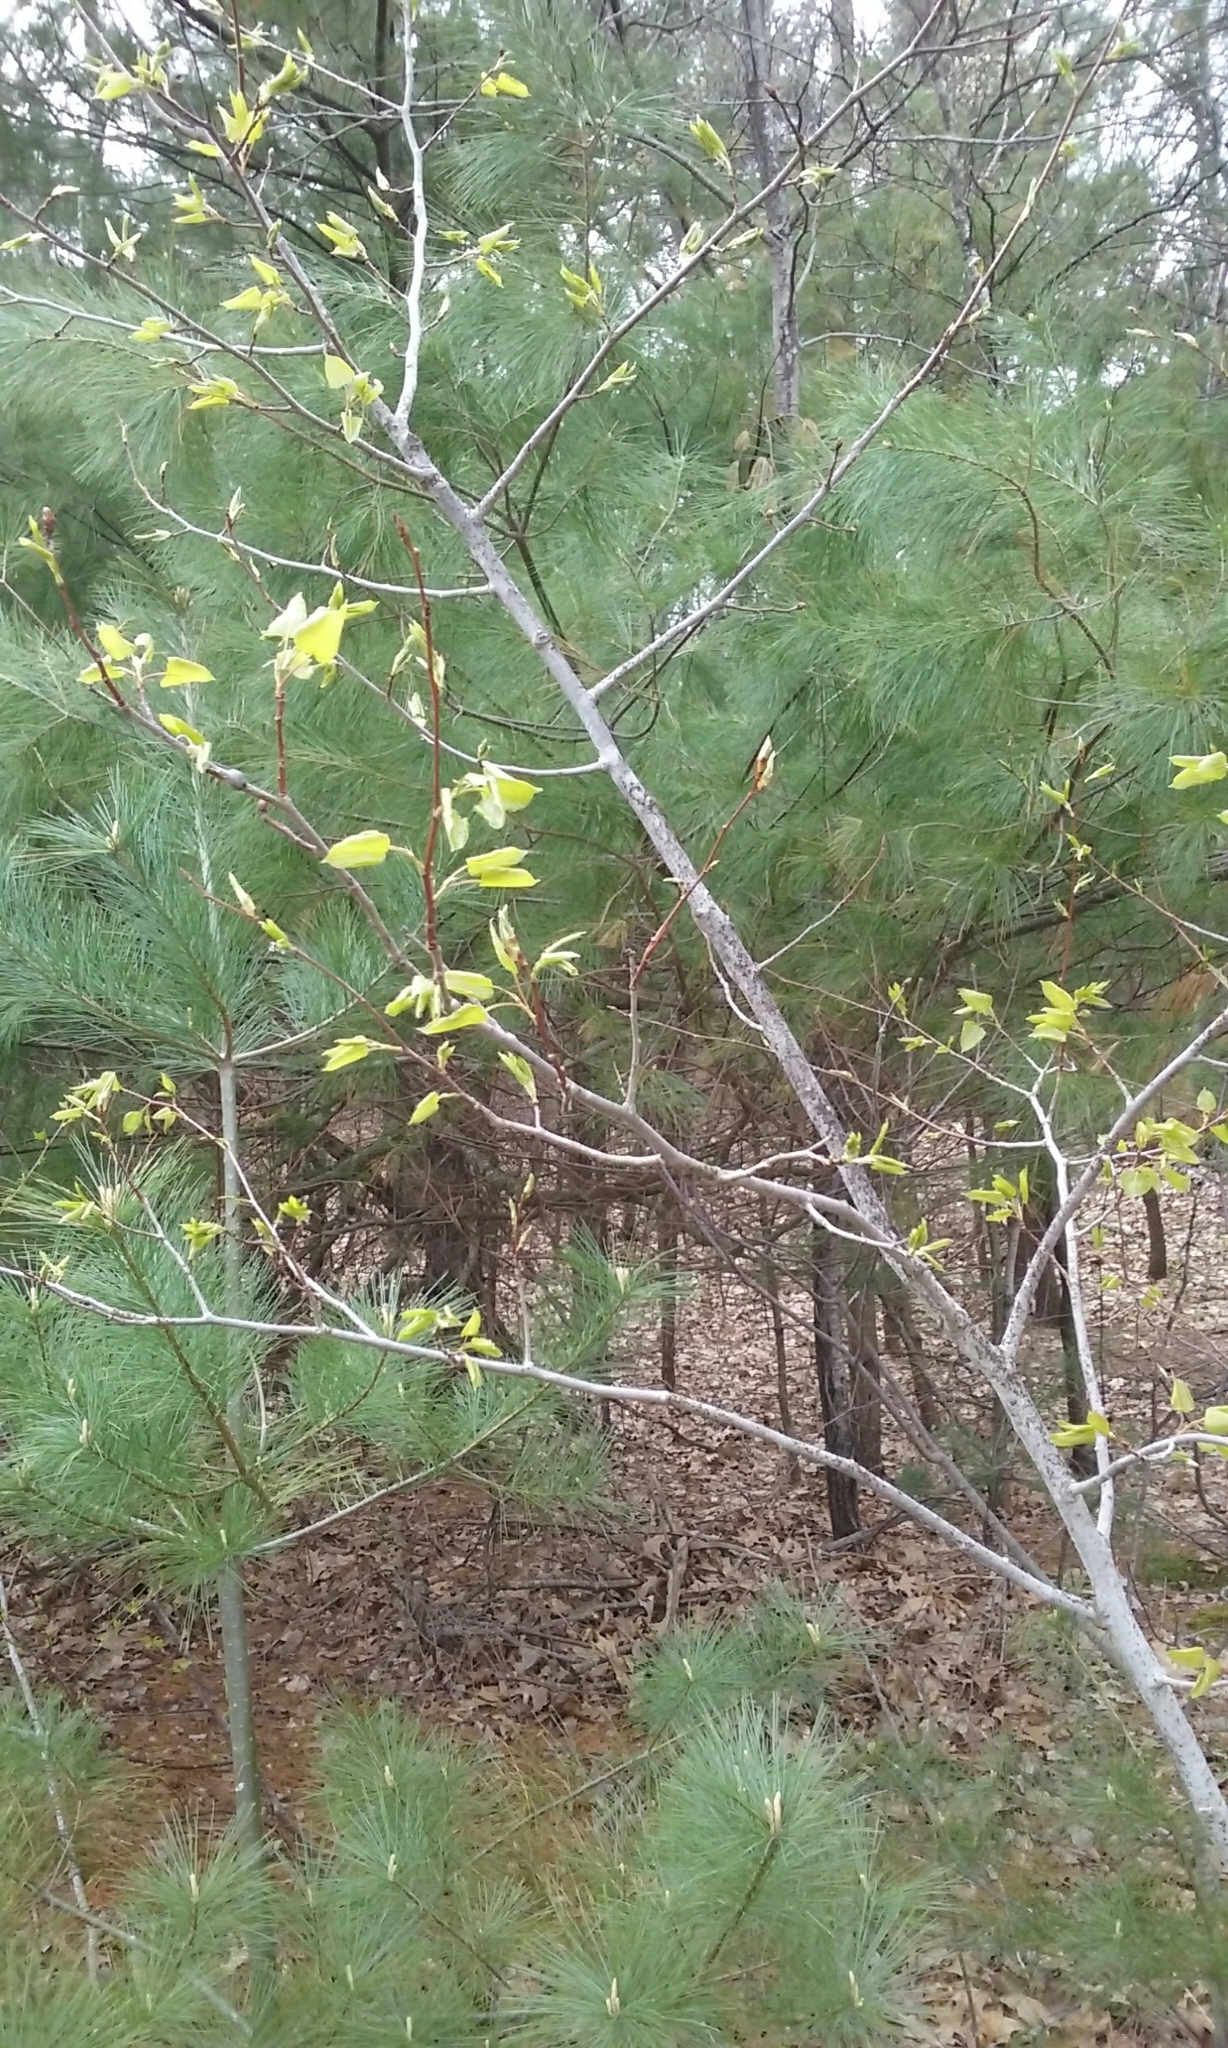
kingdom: Plantae
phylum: Tracheophyta
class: Magnoliopsida
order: Malpighiales
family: Salicaceae
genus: Populus
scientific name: Populus tremuloides
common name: Quaking aspen
